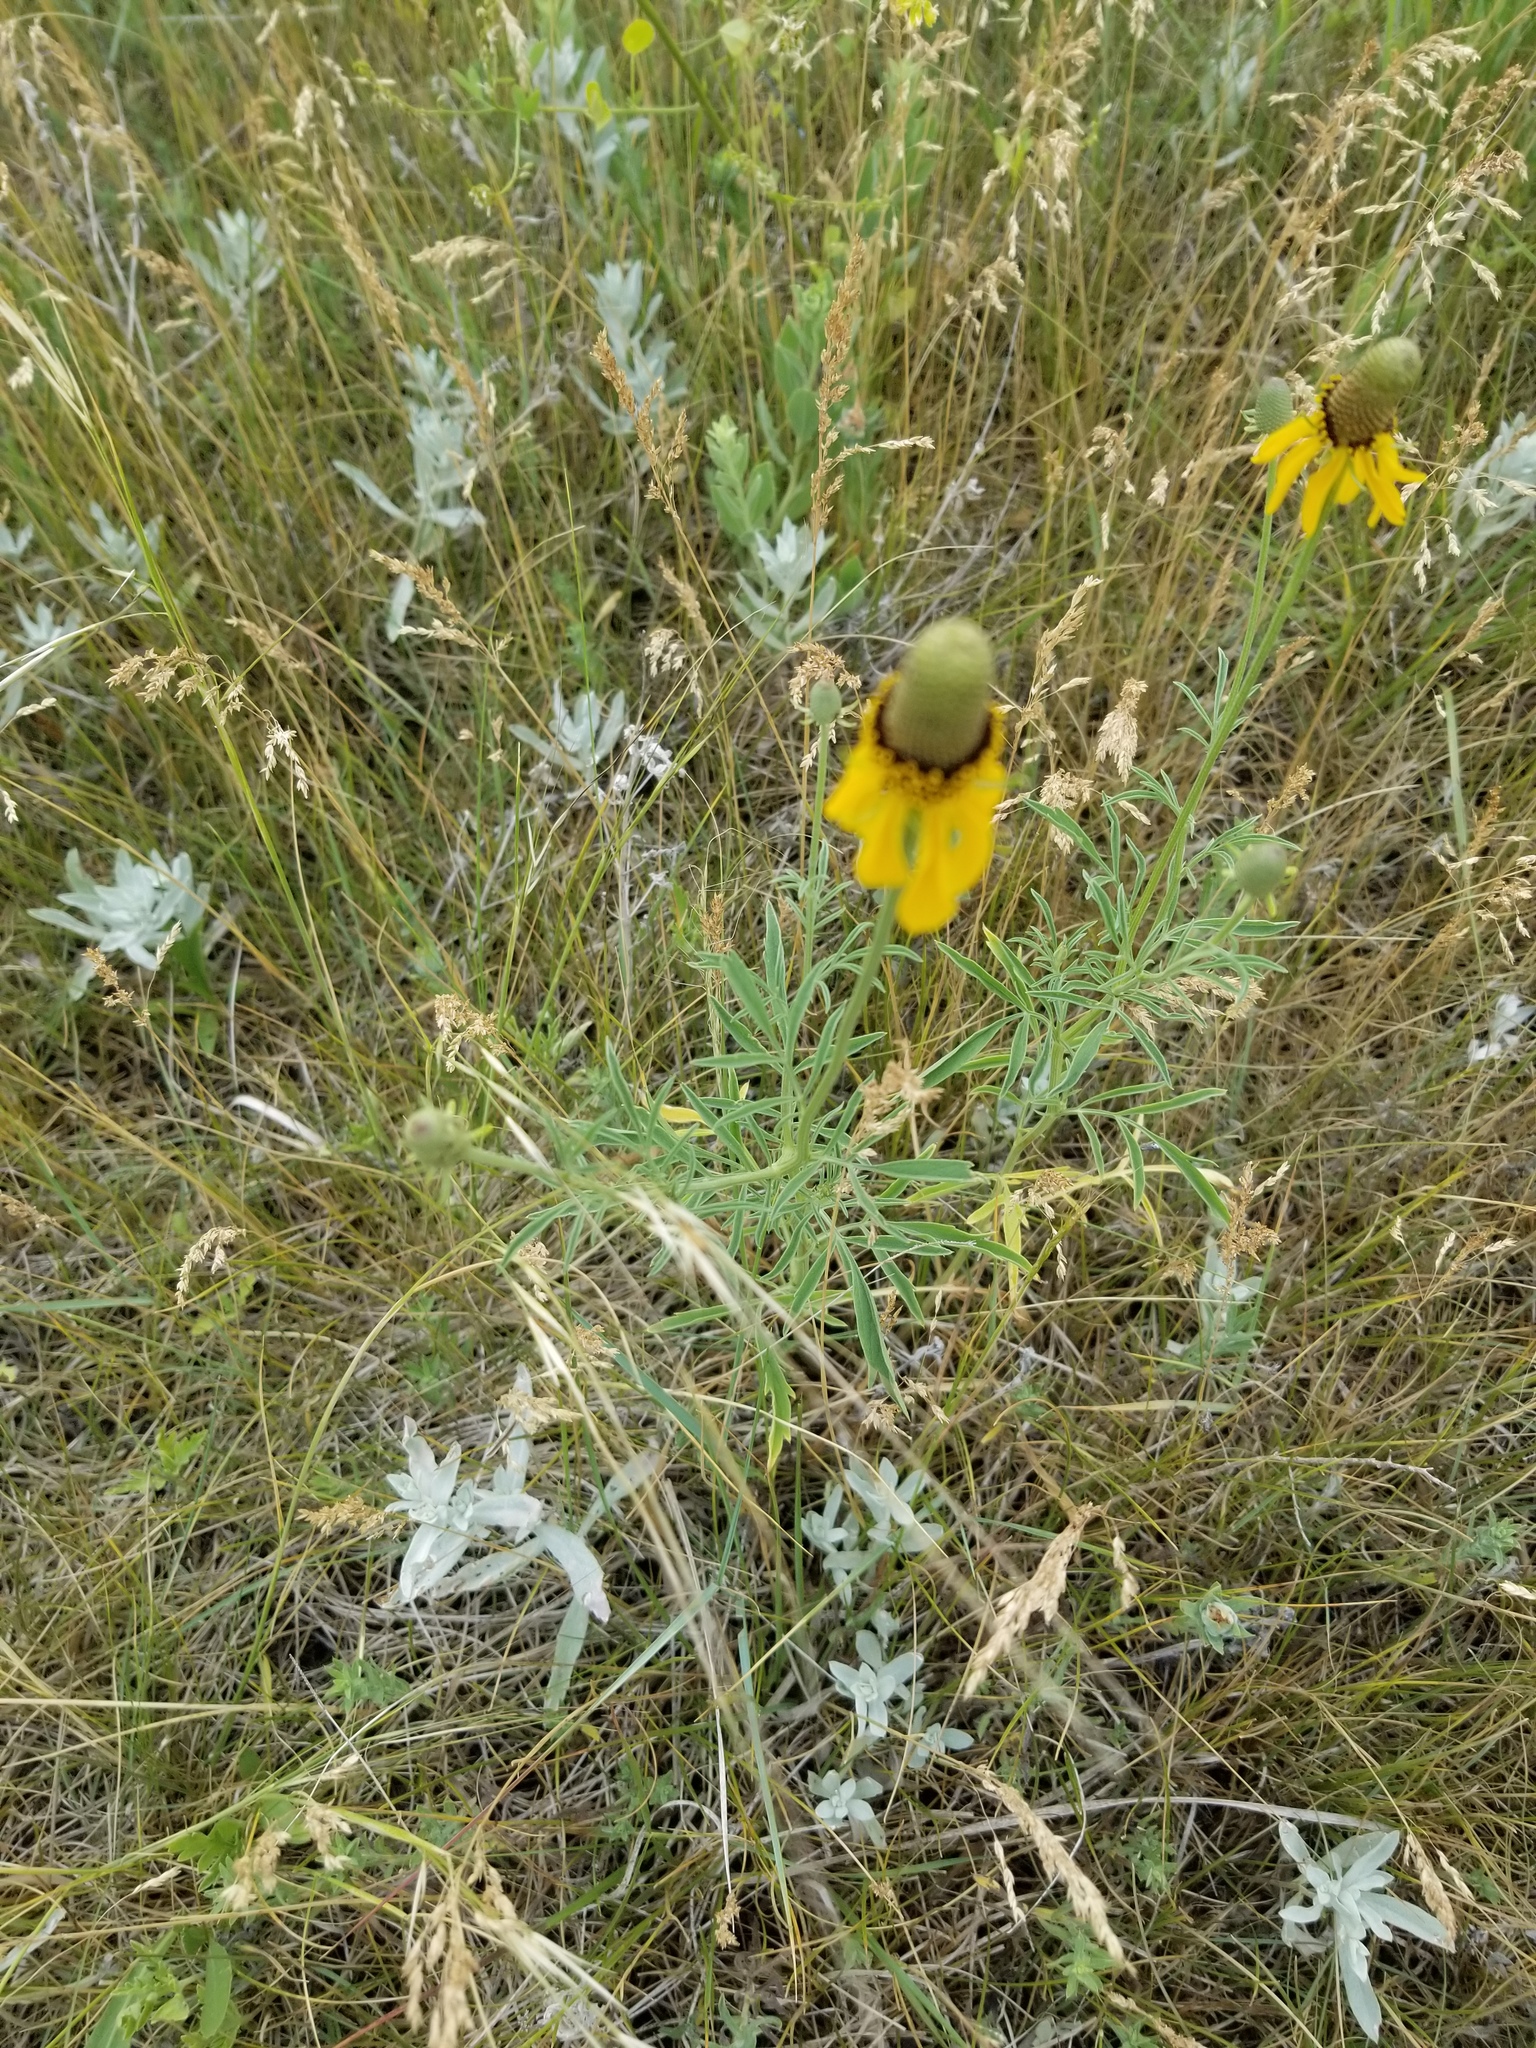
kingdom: Plantae
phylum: Tracheophyta
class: Magnoliopsida
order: Asterales
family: Asteraceae
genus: Ratibida
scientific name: Ratibida columnifera
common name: Prairie coneflower
